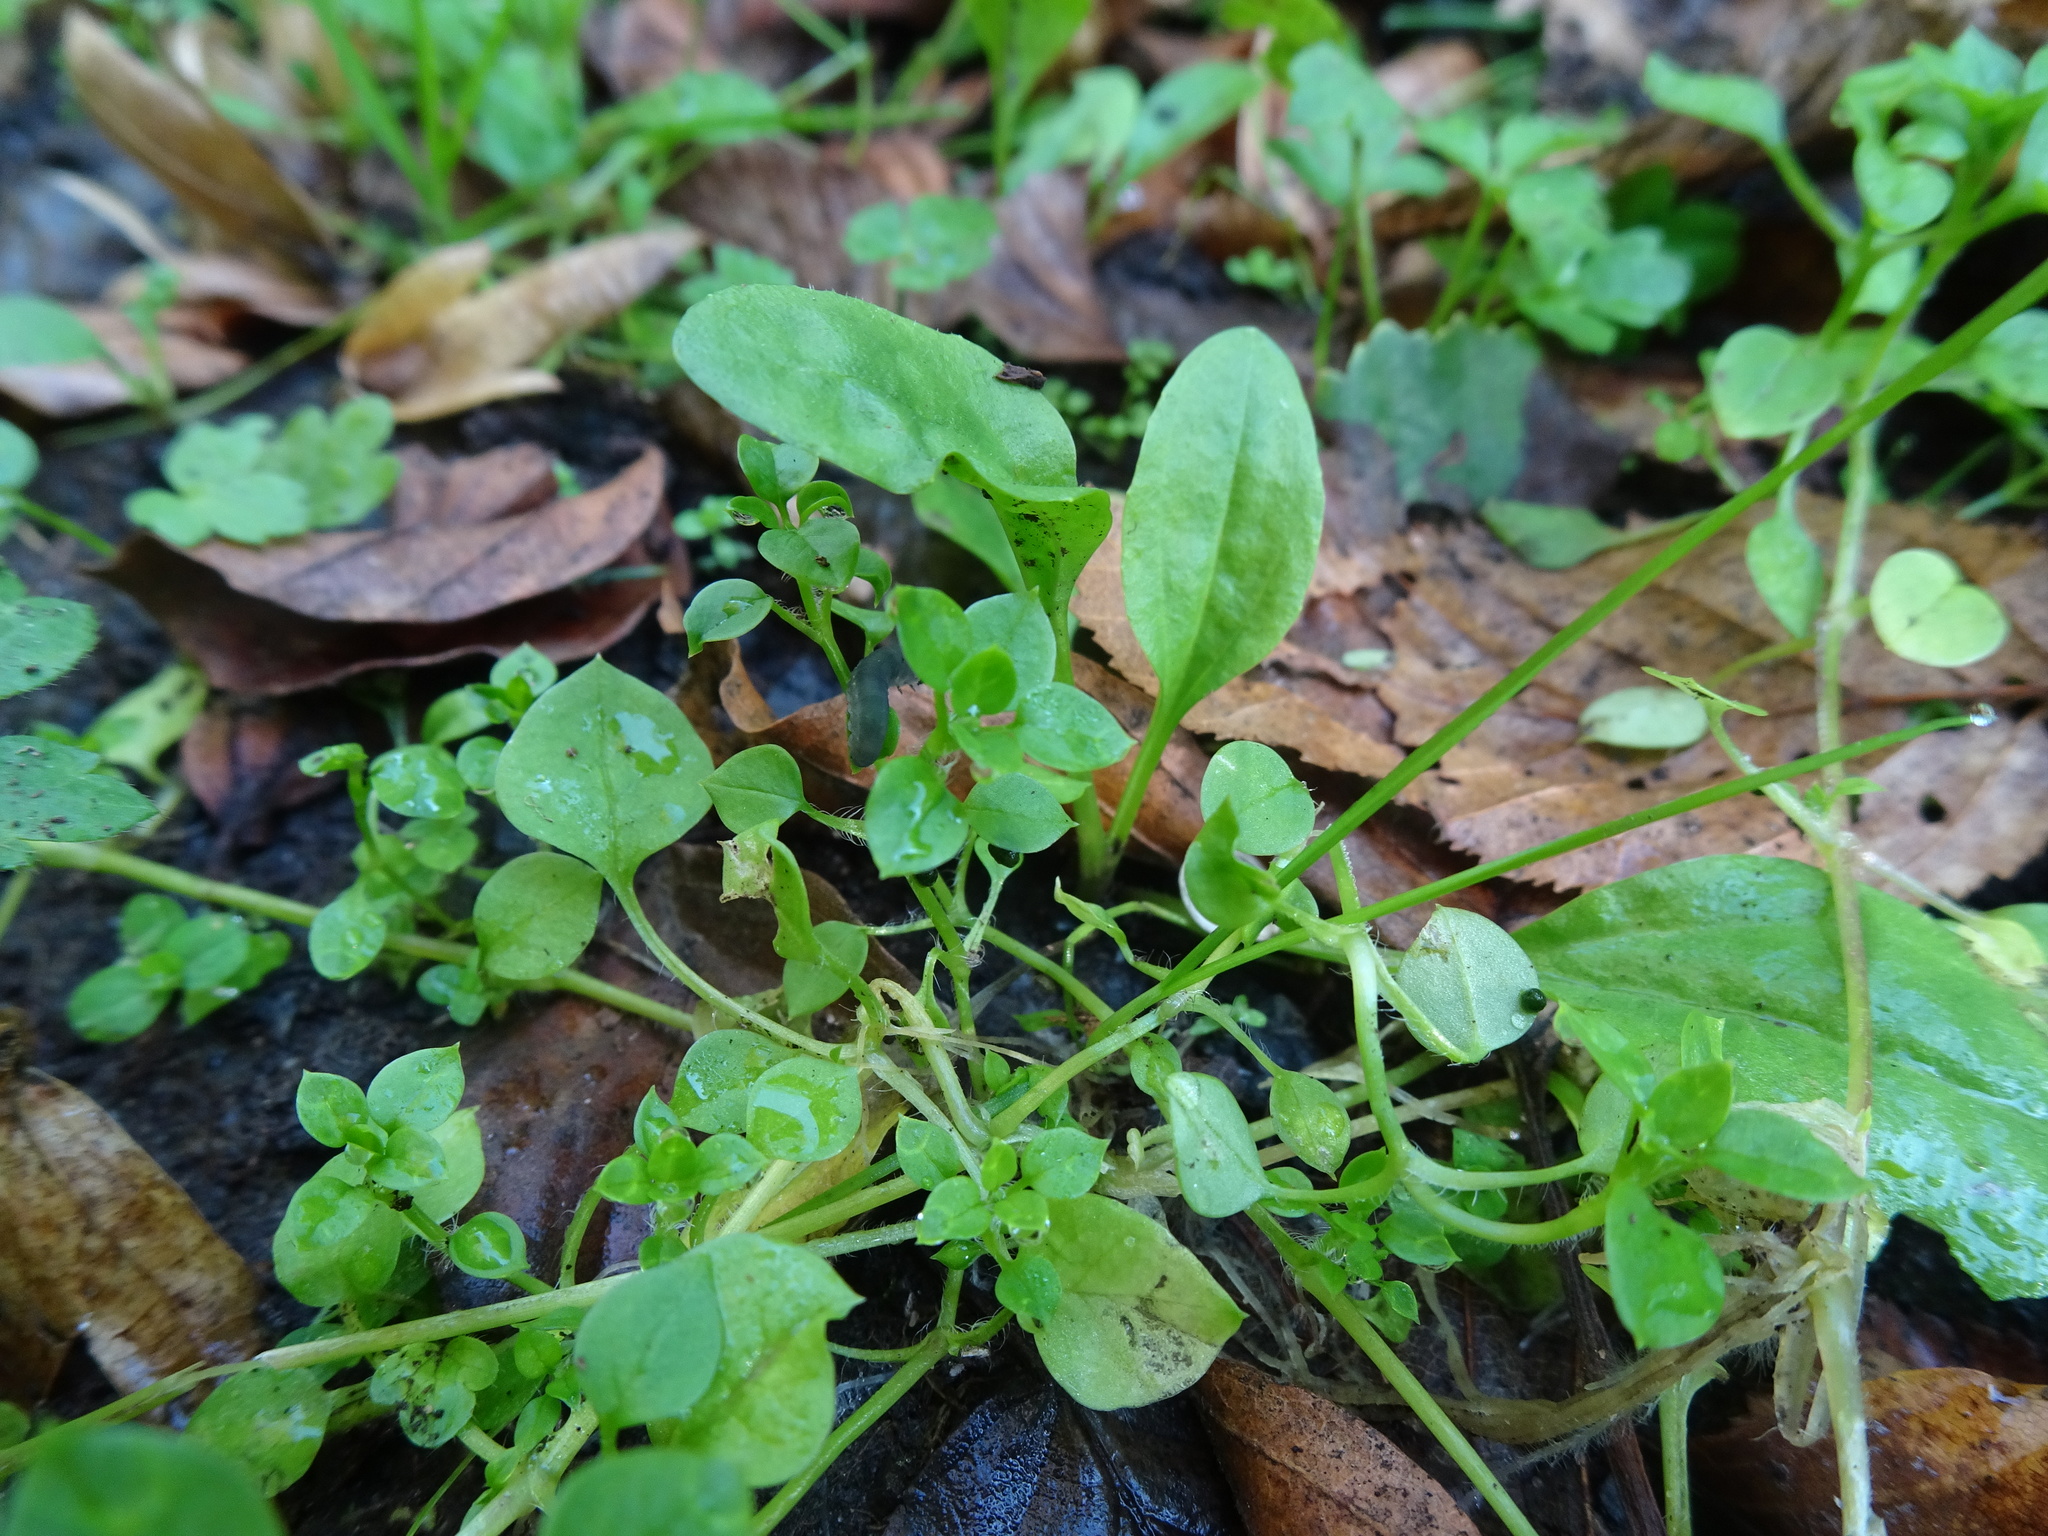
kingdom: Plantae
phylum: Tracheophyta
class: Magnoliopsida
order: Caryophyllales
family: Caryophyllaceae
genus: Stellaria
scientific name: Stellaria media
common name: Common chickweed
